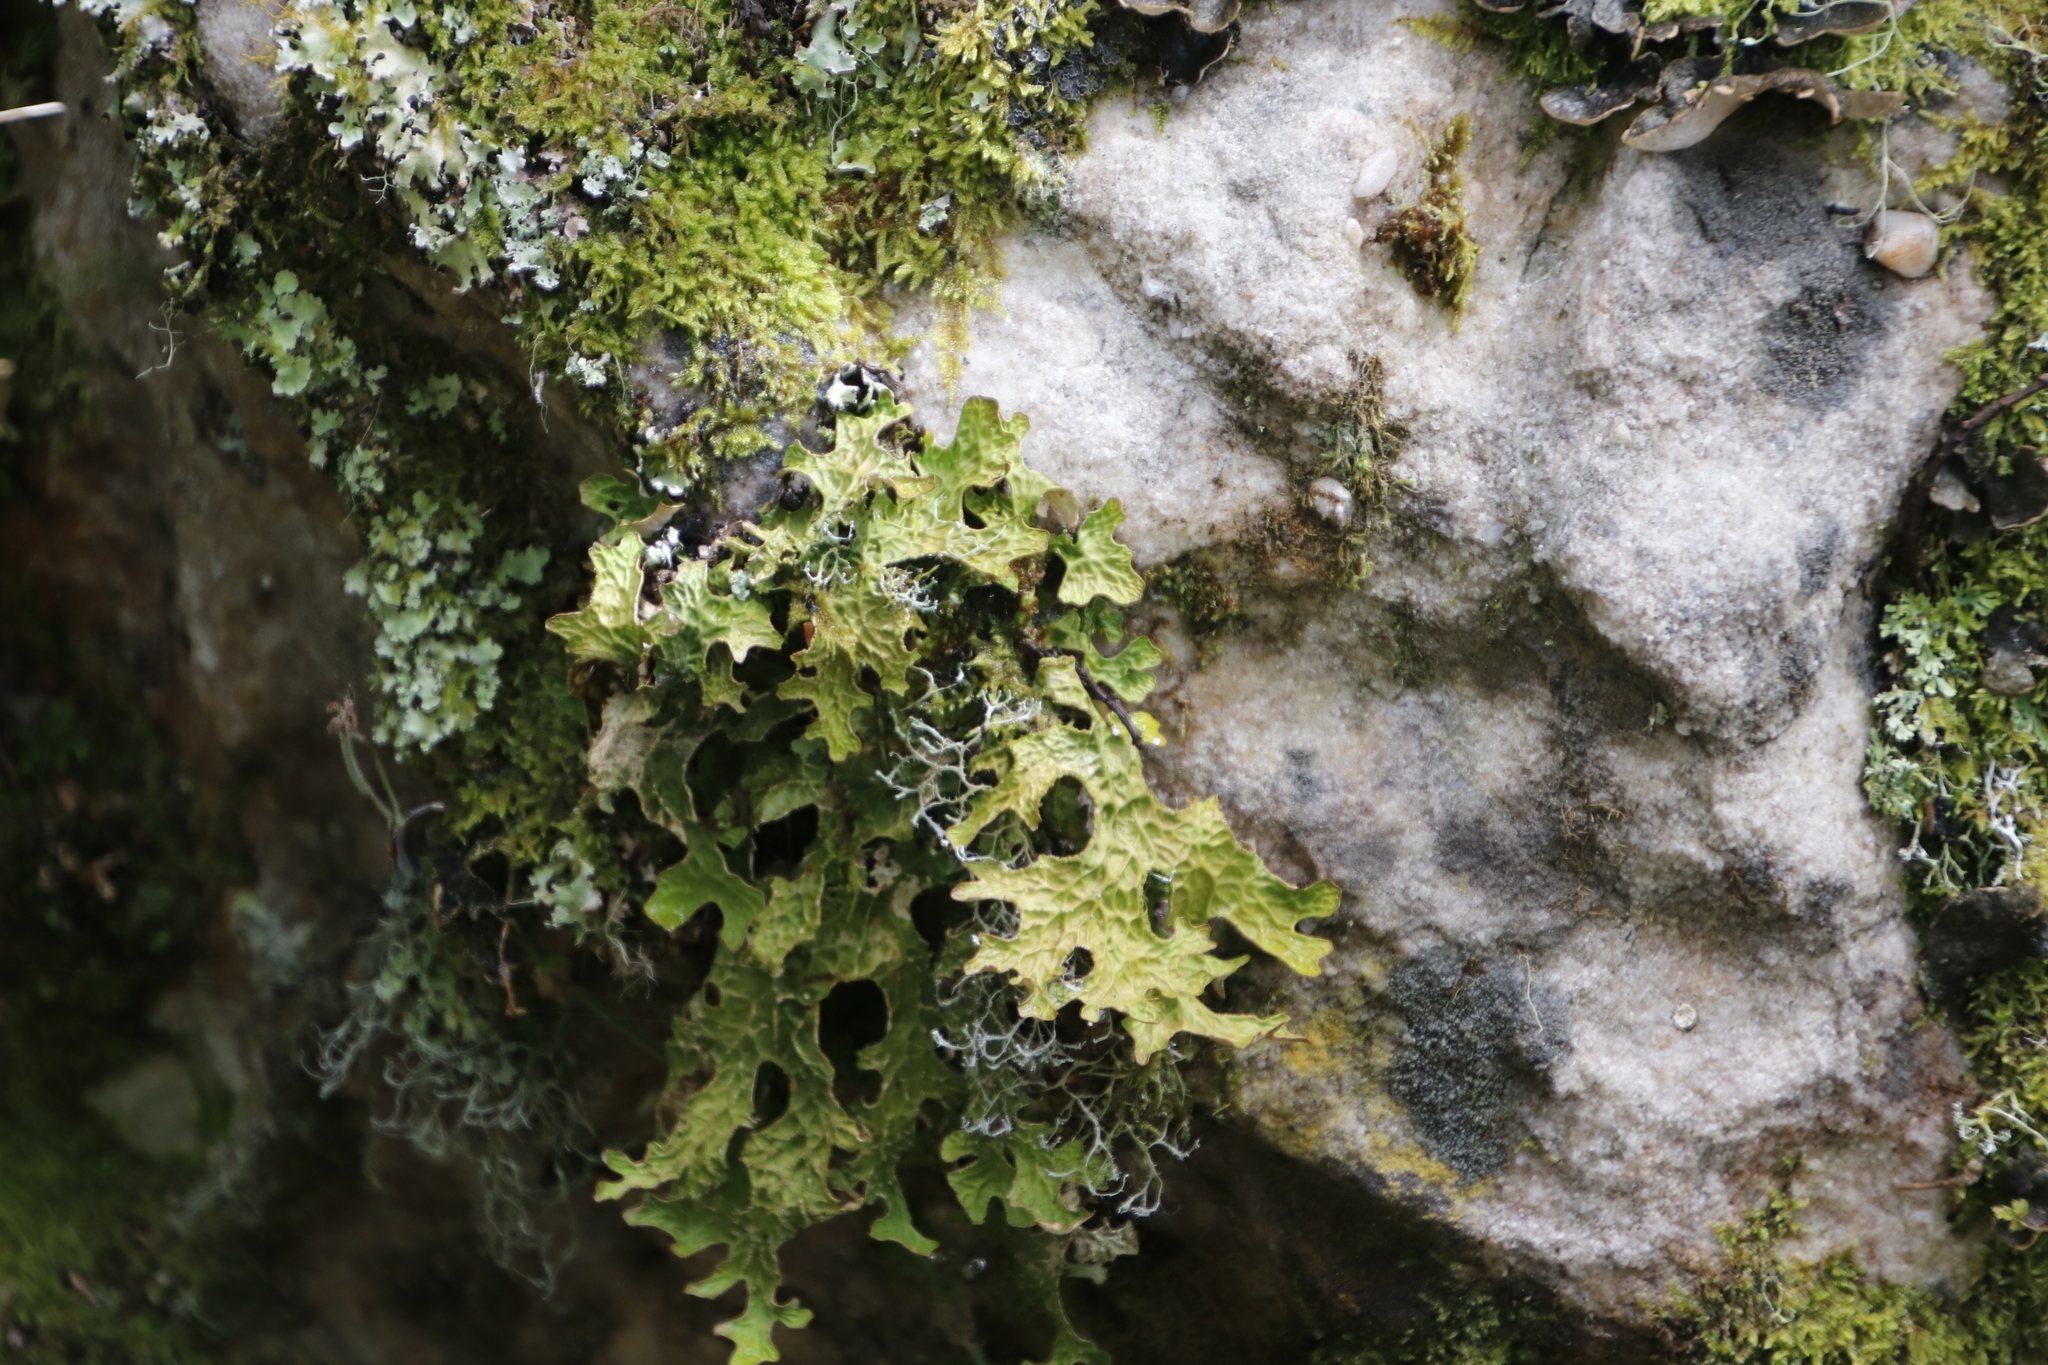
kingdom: Fungi
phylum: Ascomycota
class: Lecanoromycetes
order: Peltigerales
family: Lobariaceae
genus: Lobaria
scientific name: Lobaria pulmonaria
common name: Lungwort
